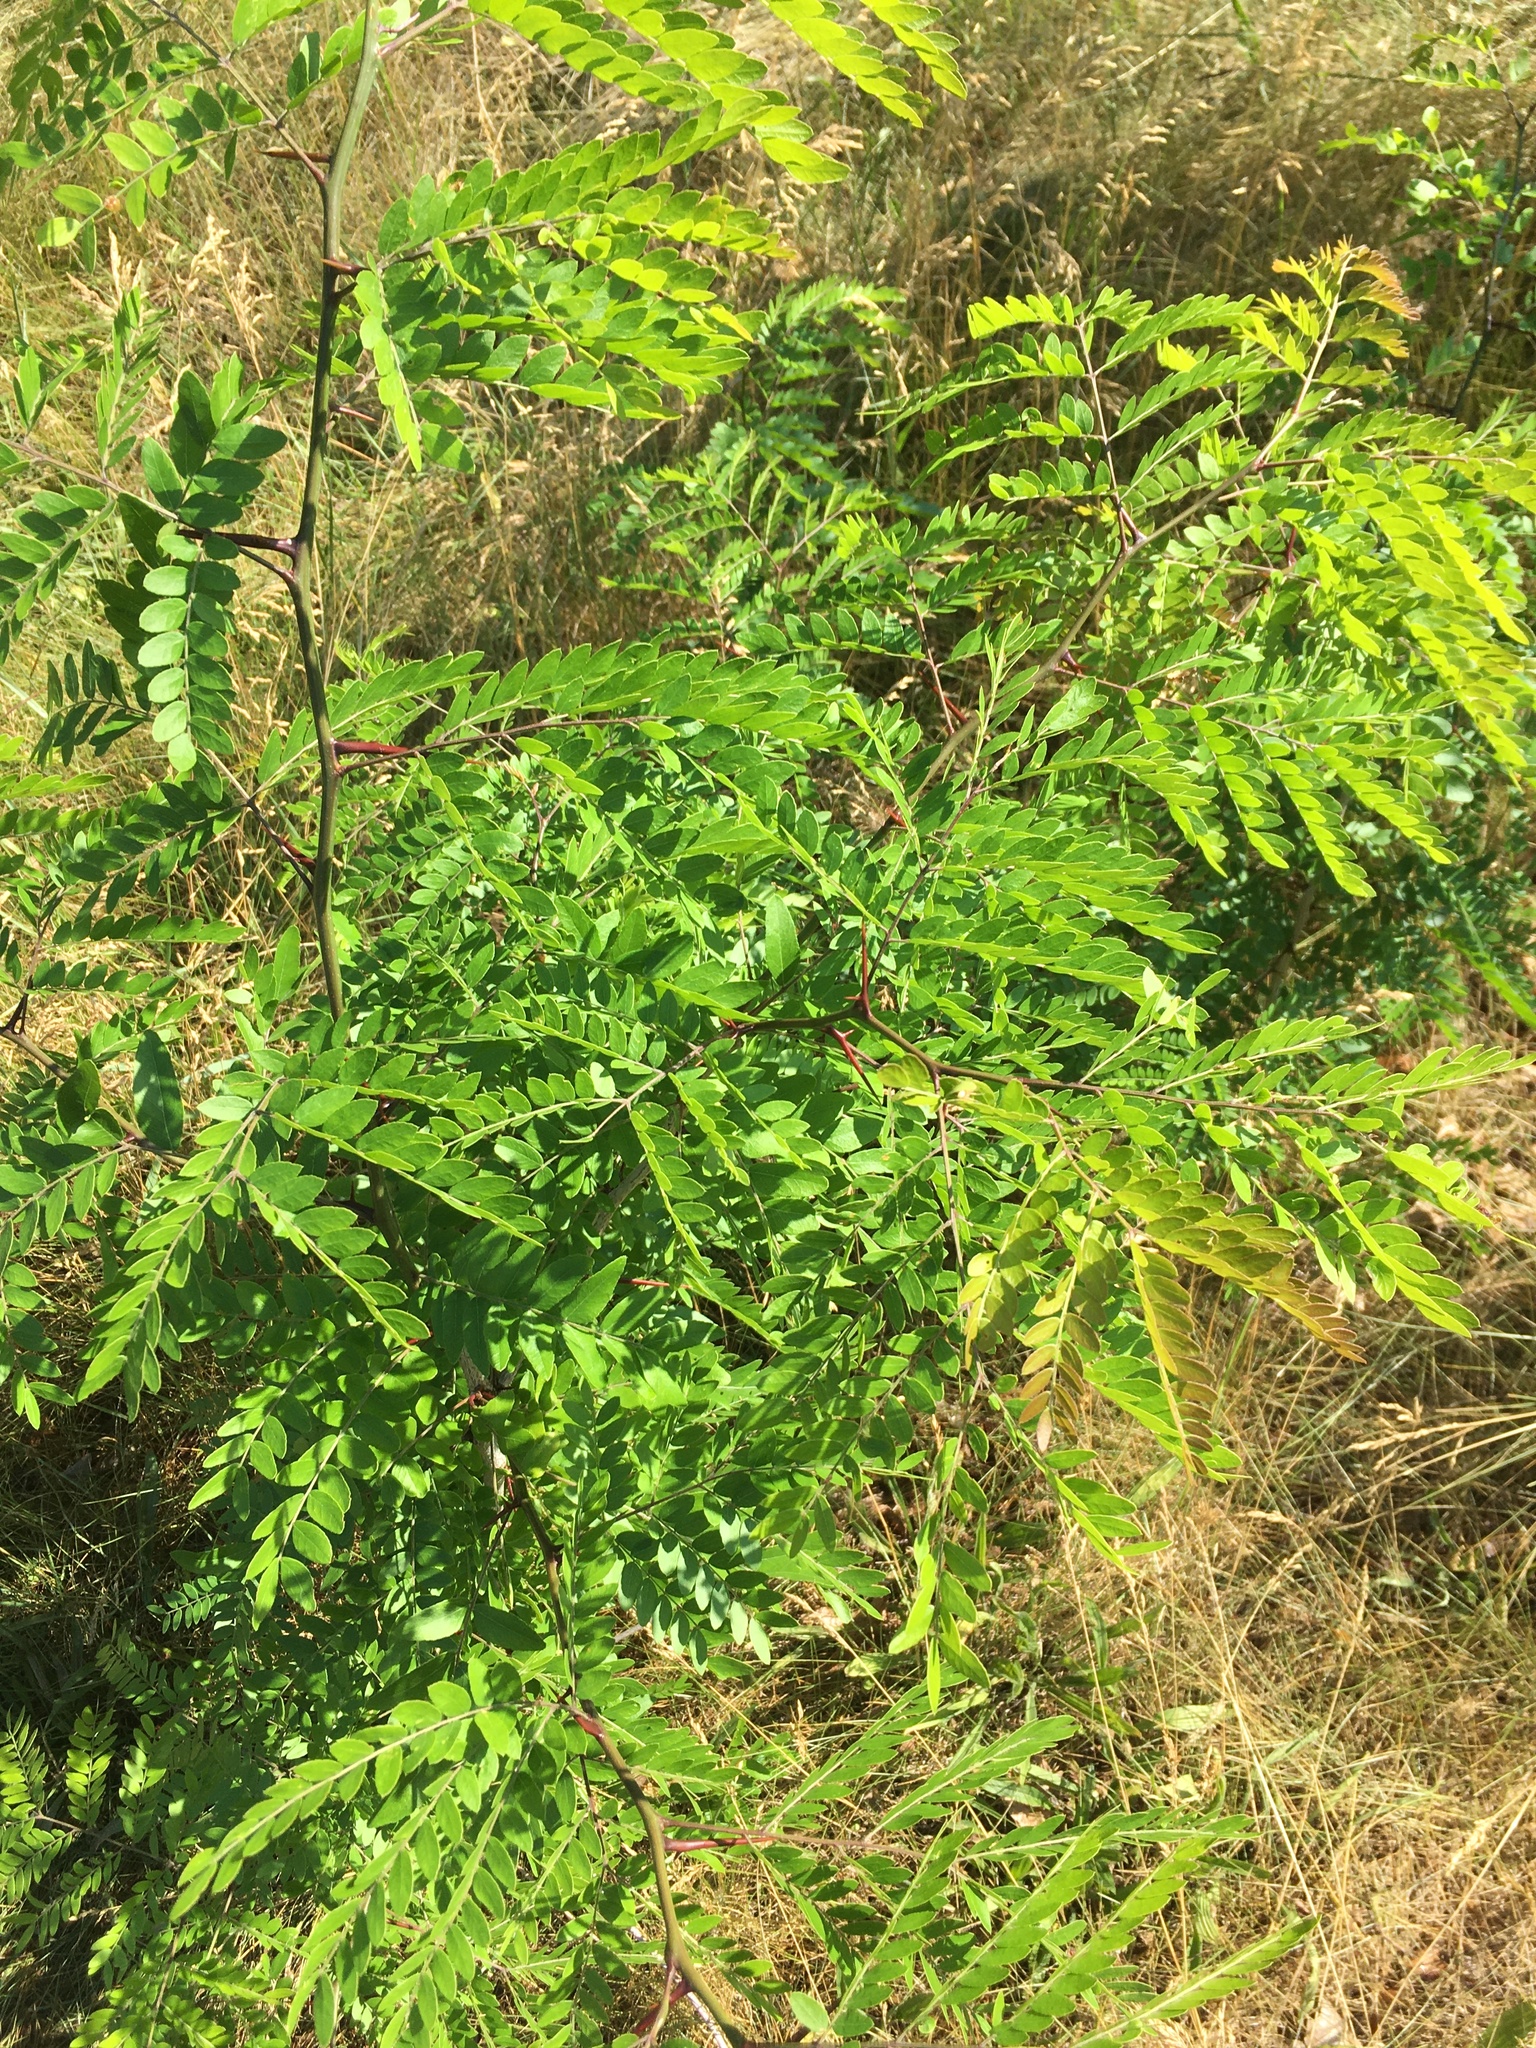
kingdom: Plantae
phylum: Tracheophyta
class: Magnoliopsida
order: Fabales
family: Fabaceae
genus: Gleditsia
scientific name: Gleditsia triacanthos
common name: Common honeylocust
